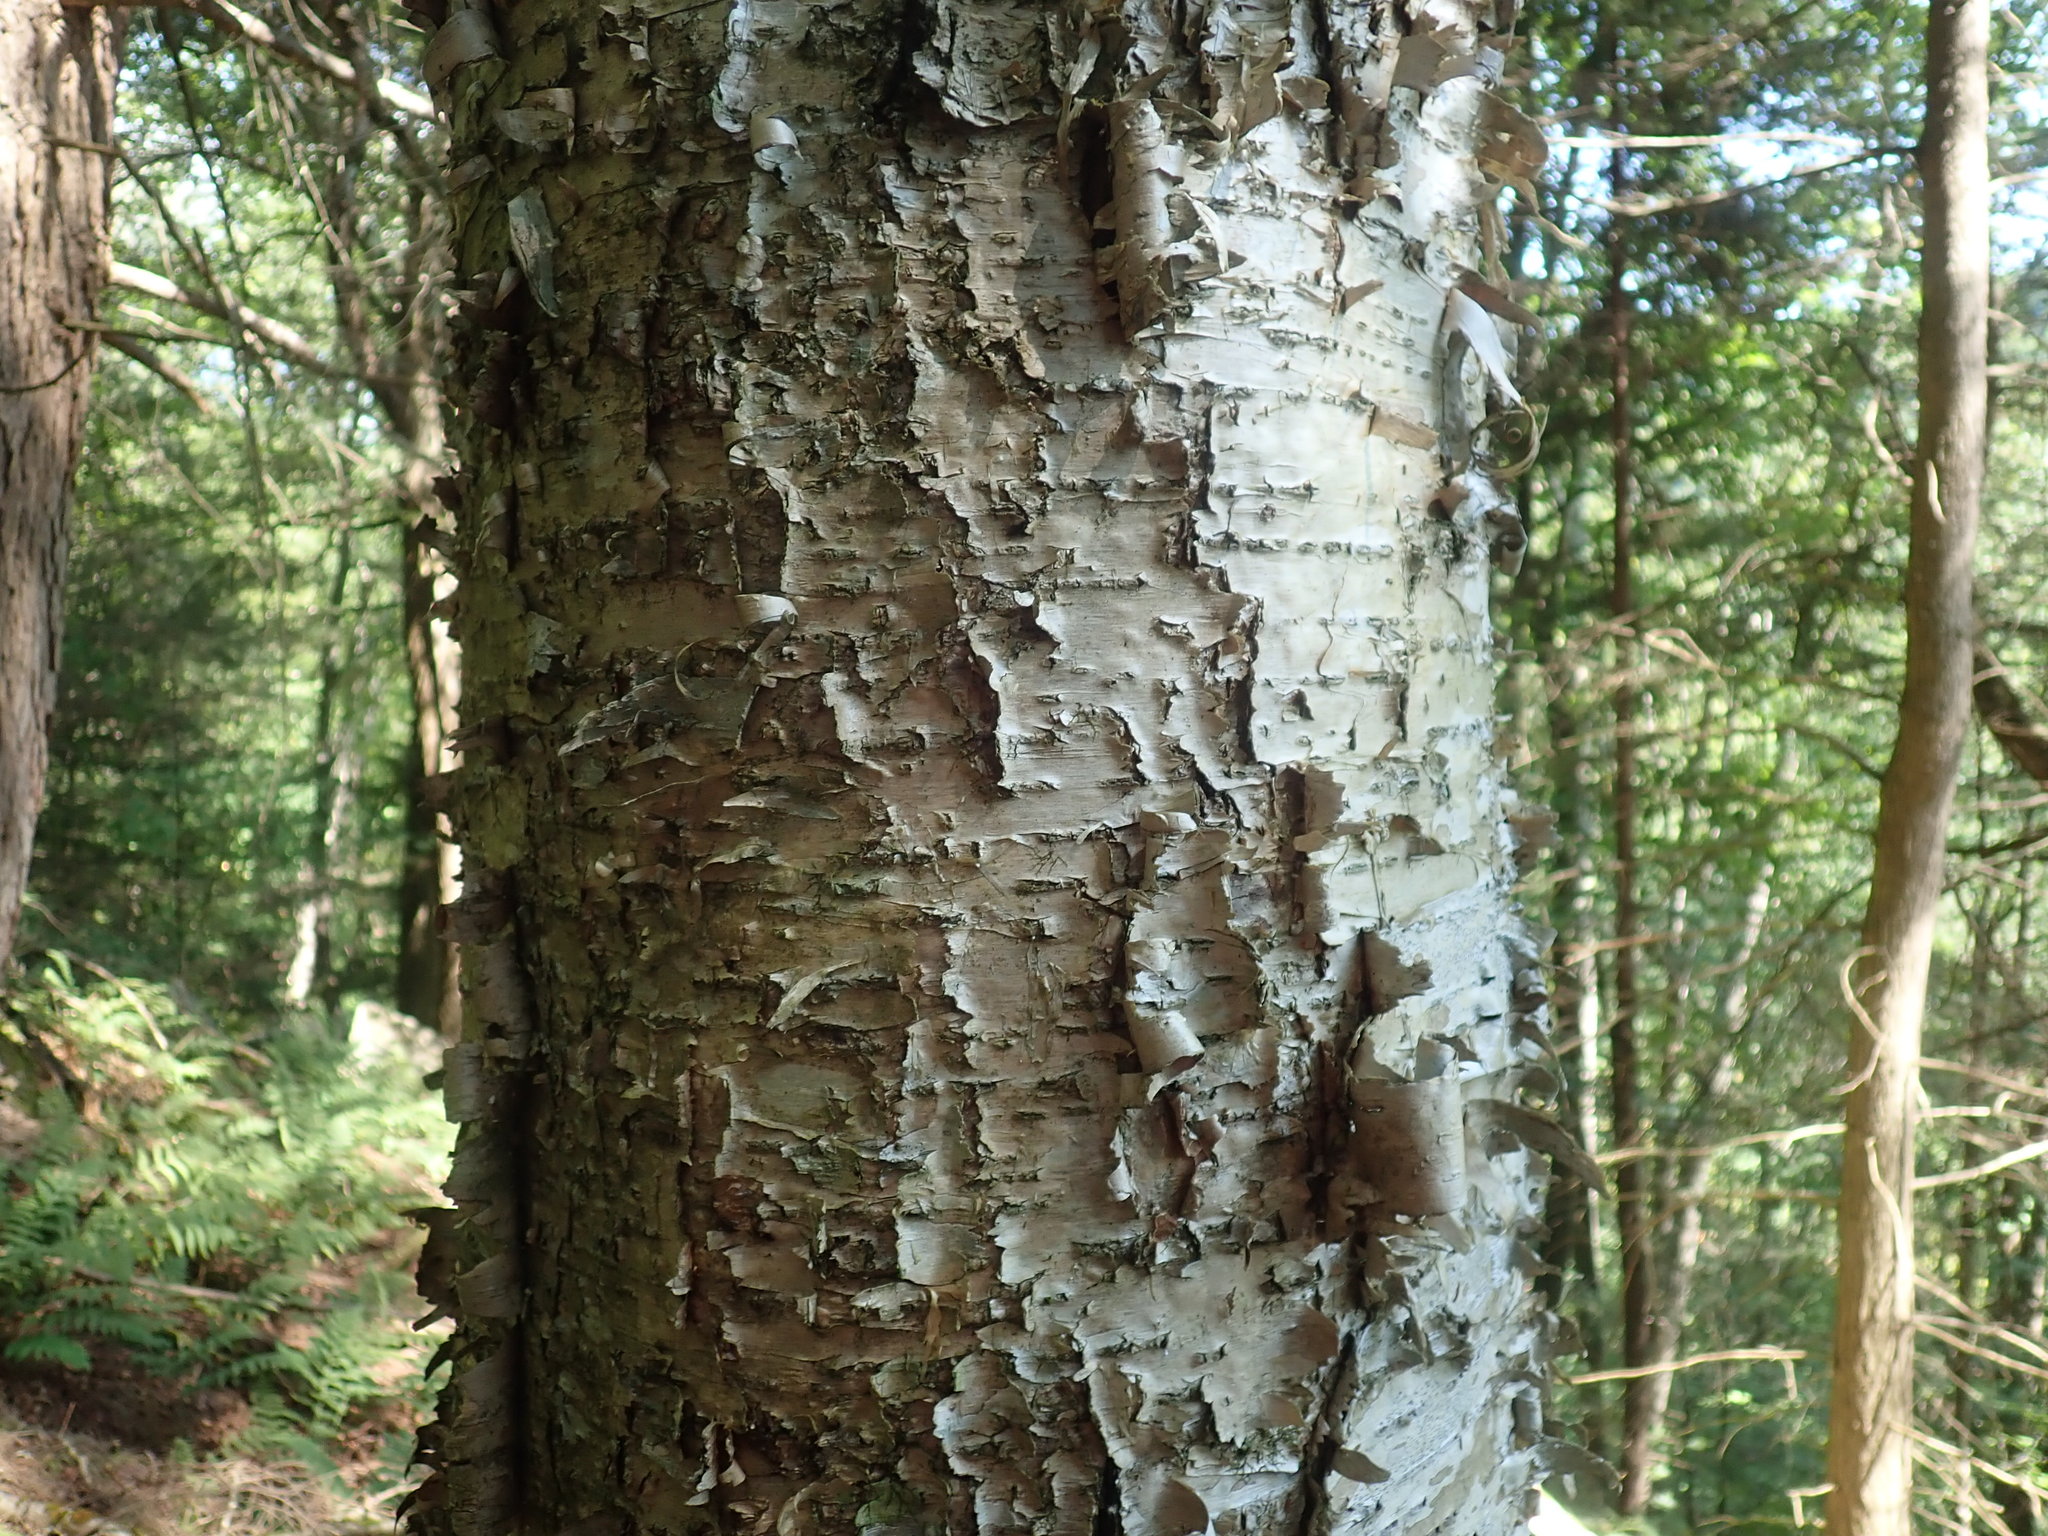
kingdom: Plantae
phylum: Tracheophyta
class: Magnoliopsida
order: Fagales
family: Betulaceae
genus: Betula
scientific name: Betula alleghaniensis
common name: Yellow birch
